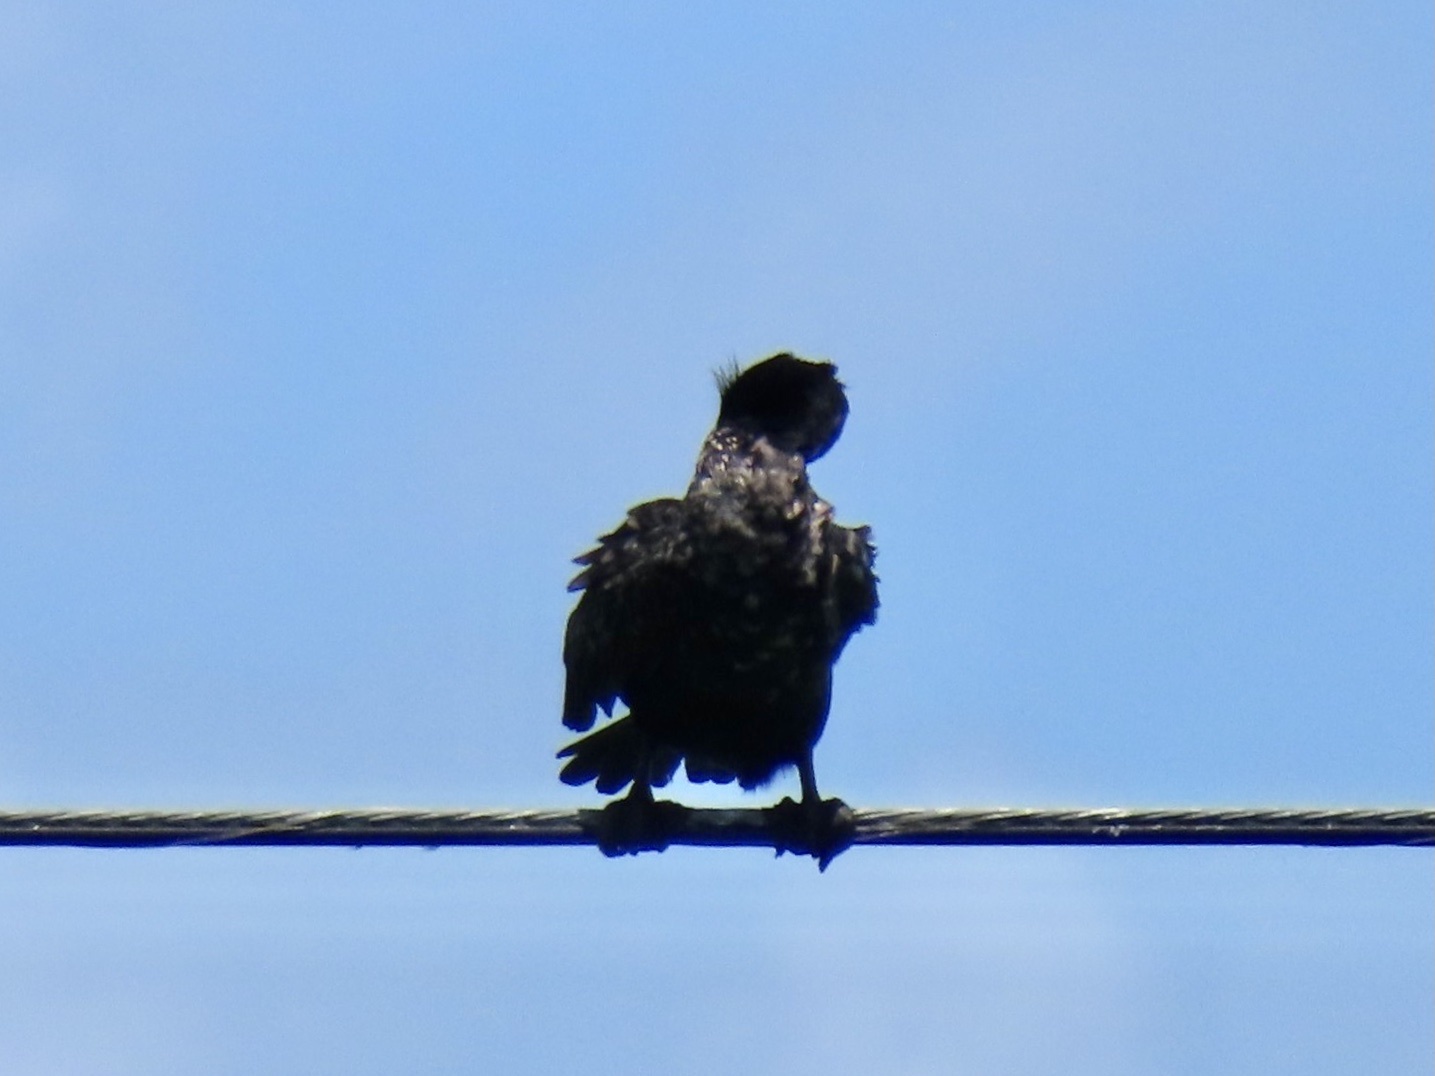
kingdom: Animalia
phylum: Chordata
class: Aves
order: Suliformes
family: Phalacrocoracidae
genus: Phalacrocorax
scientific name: Phalacrocorax auritus
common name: Double-crested cormorant
